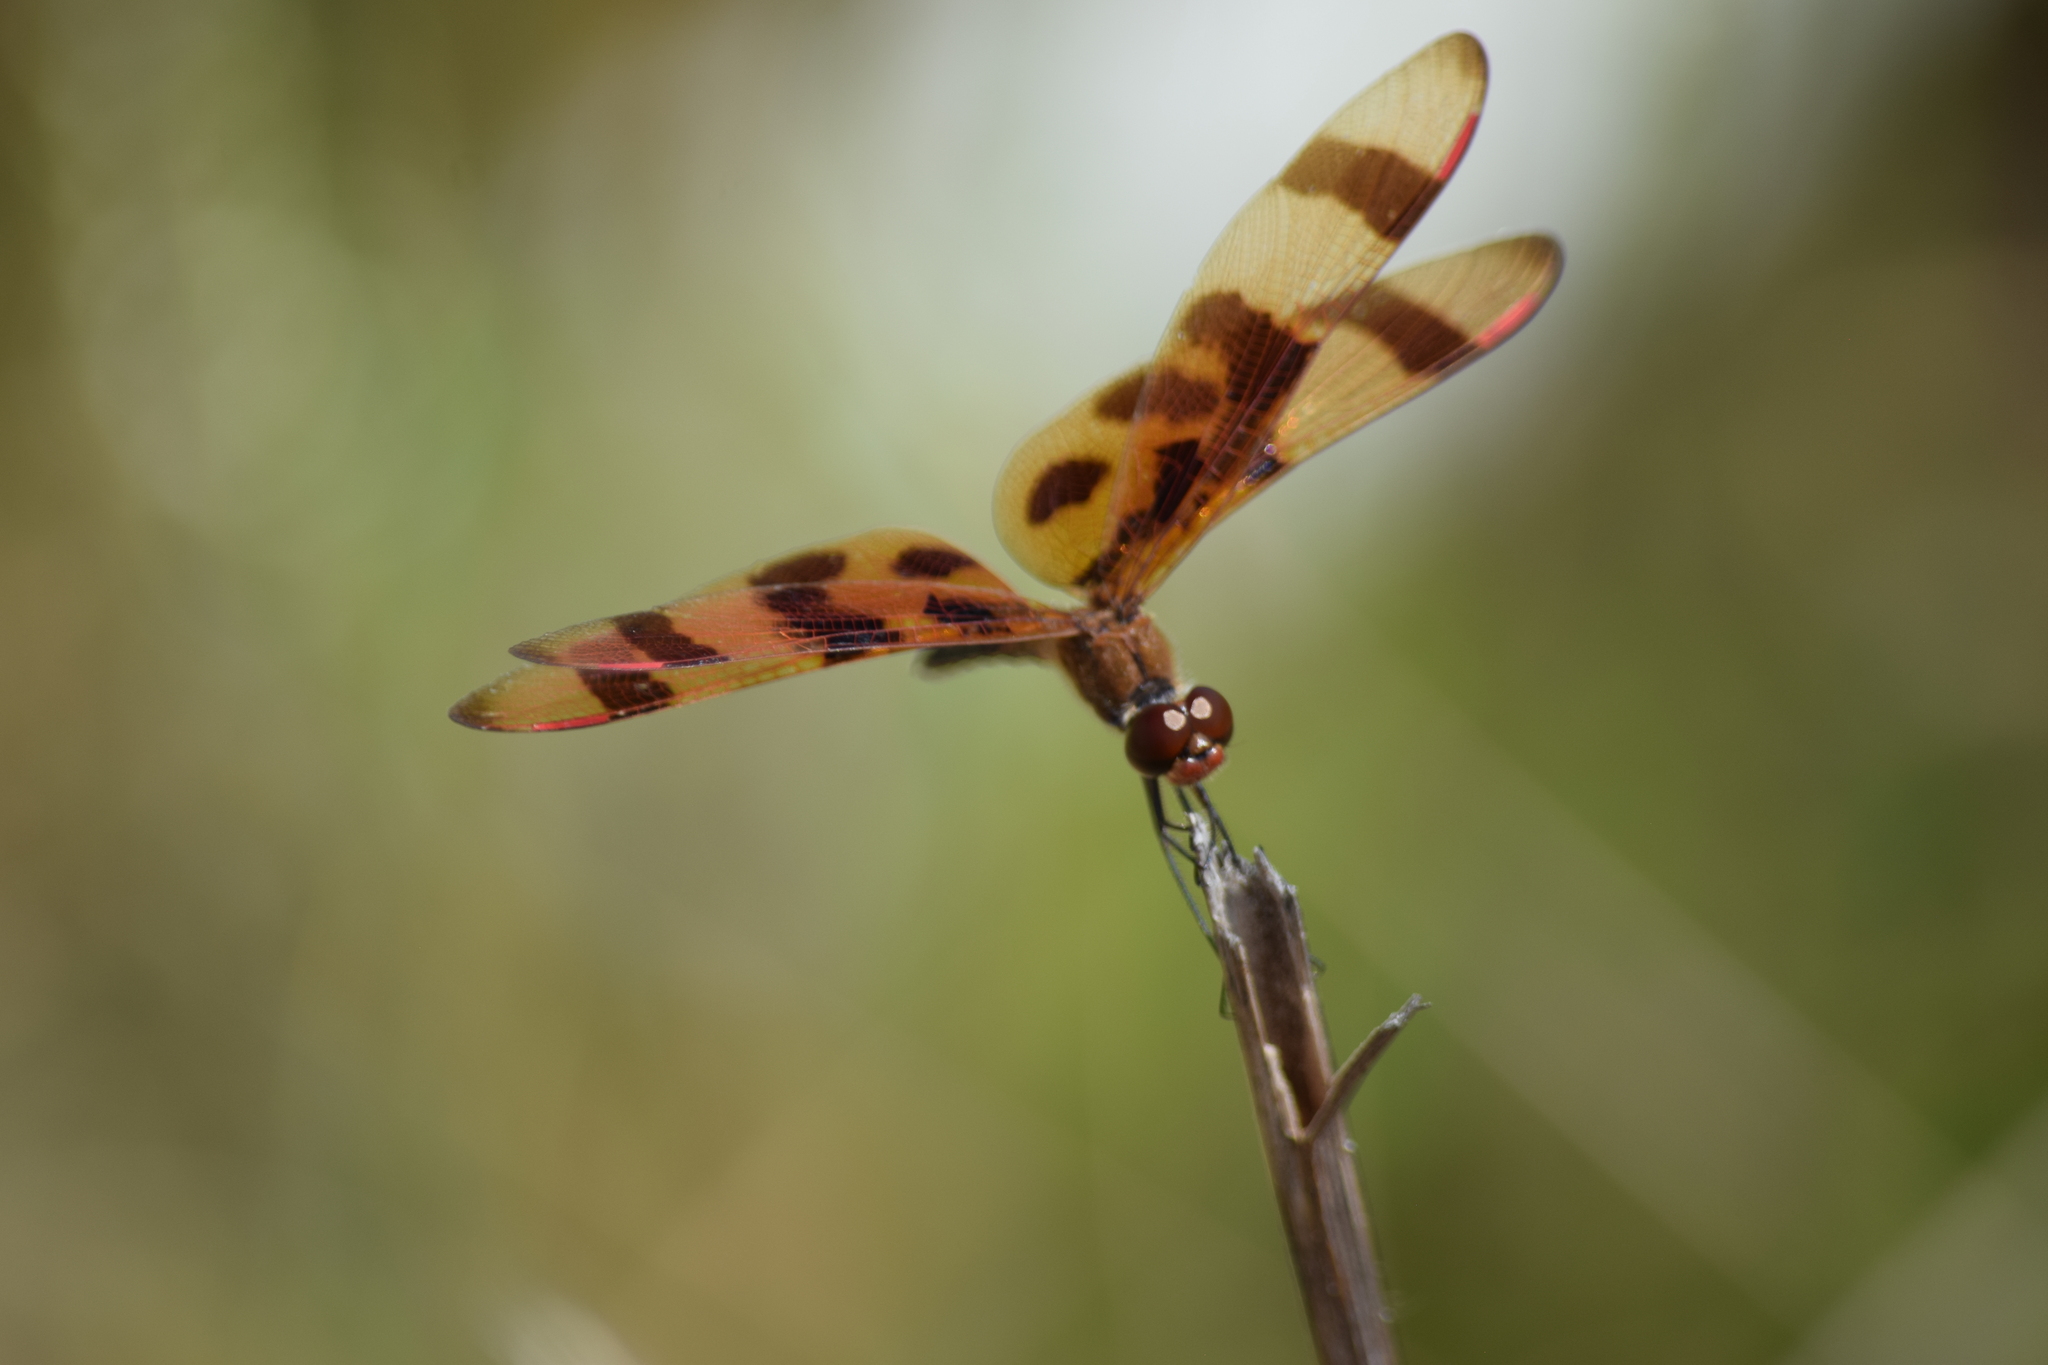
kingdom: Animalia
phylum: Arthropoda
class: Insecta
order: Odonata
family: Libellulidae
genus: Celithemis
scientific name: Celithemis eponina
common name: Halloween pennant
